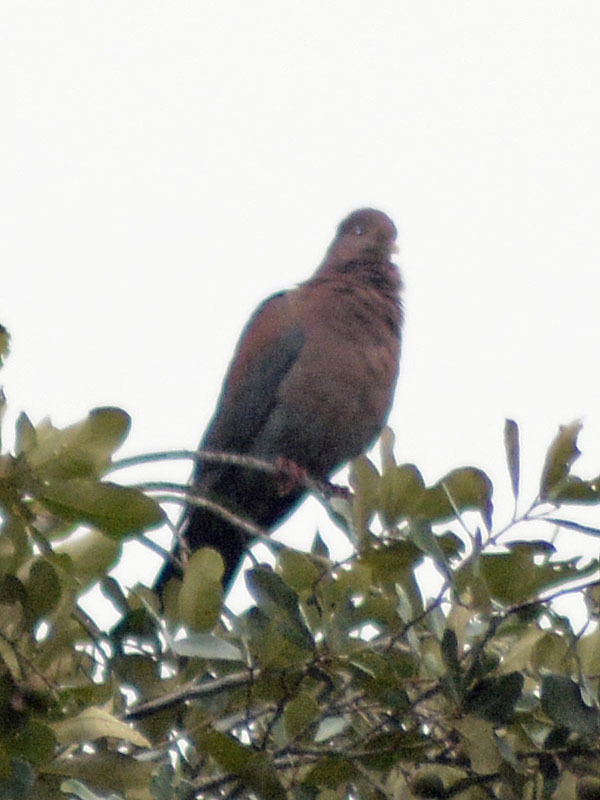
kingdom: Animalia
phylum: Chordata
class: Aves
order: Columbiformes
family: Columbidae
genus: Patagioenas
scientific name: Patagioenas flavirostris
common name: Red-billed pigeon
